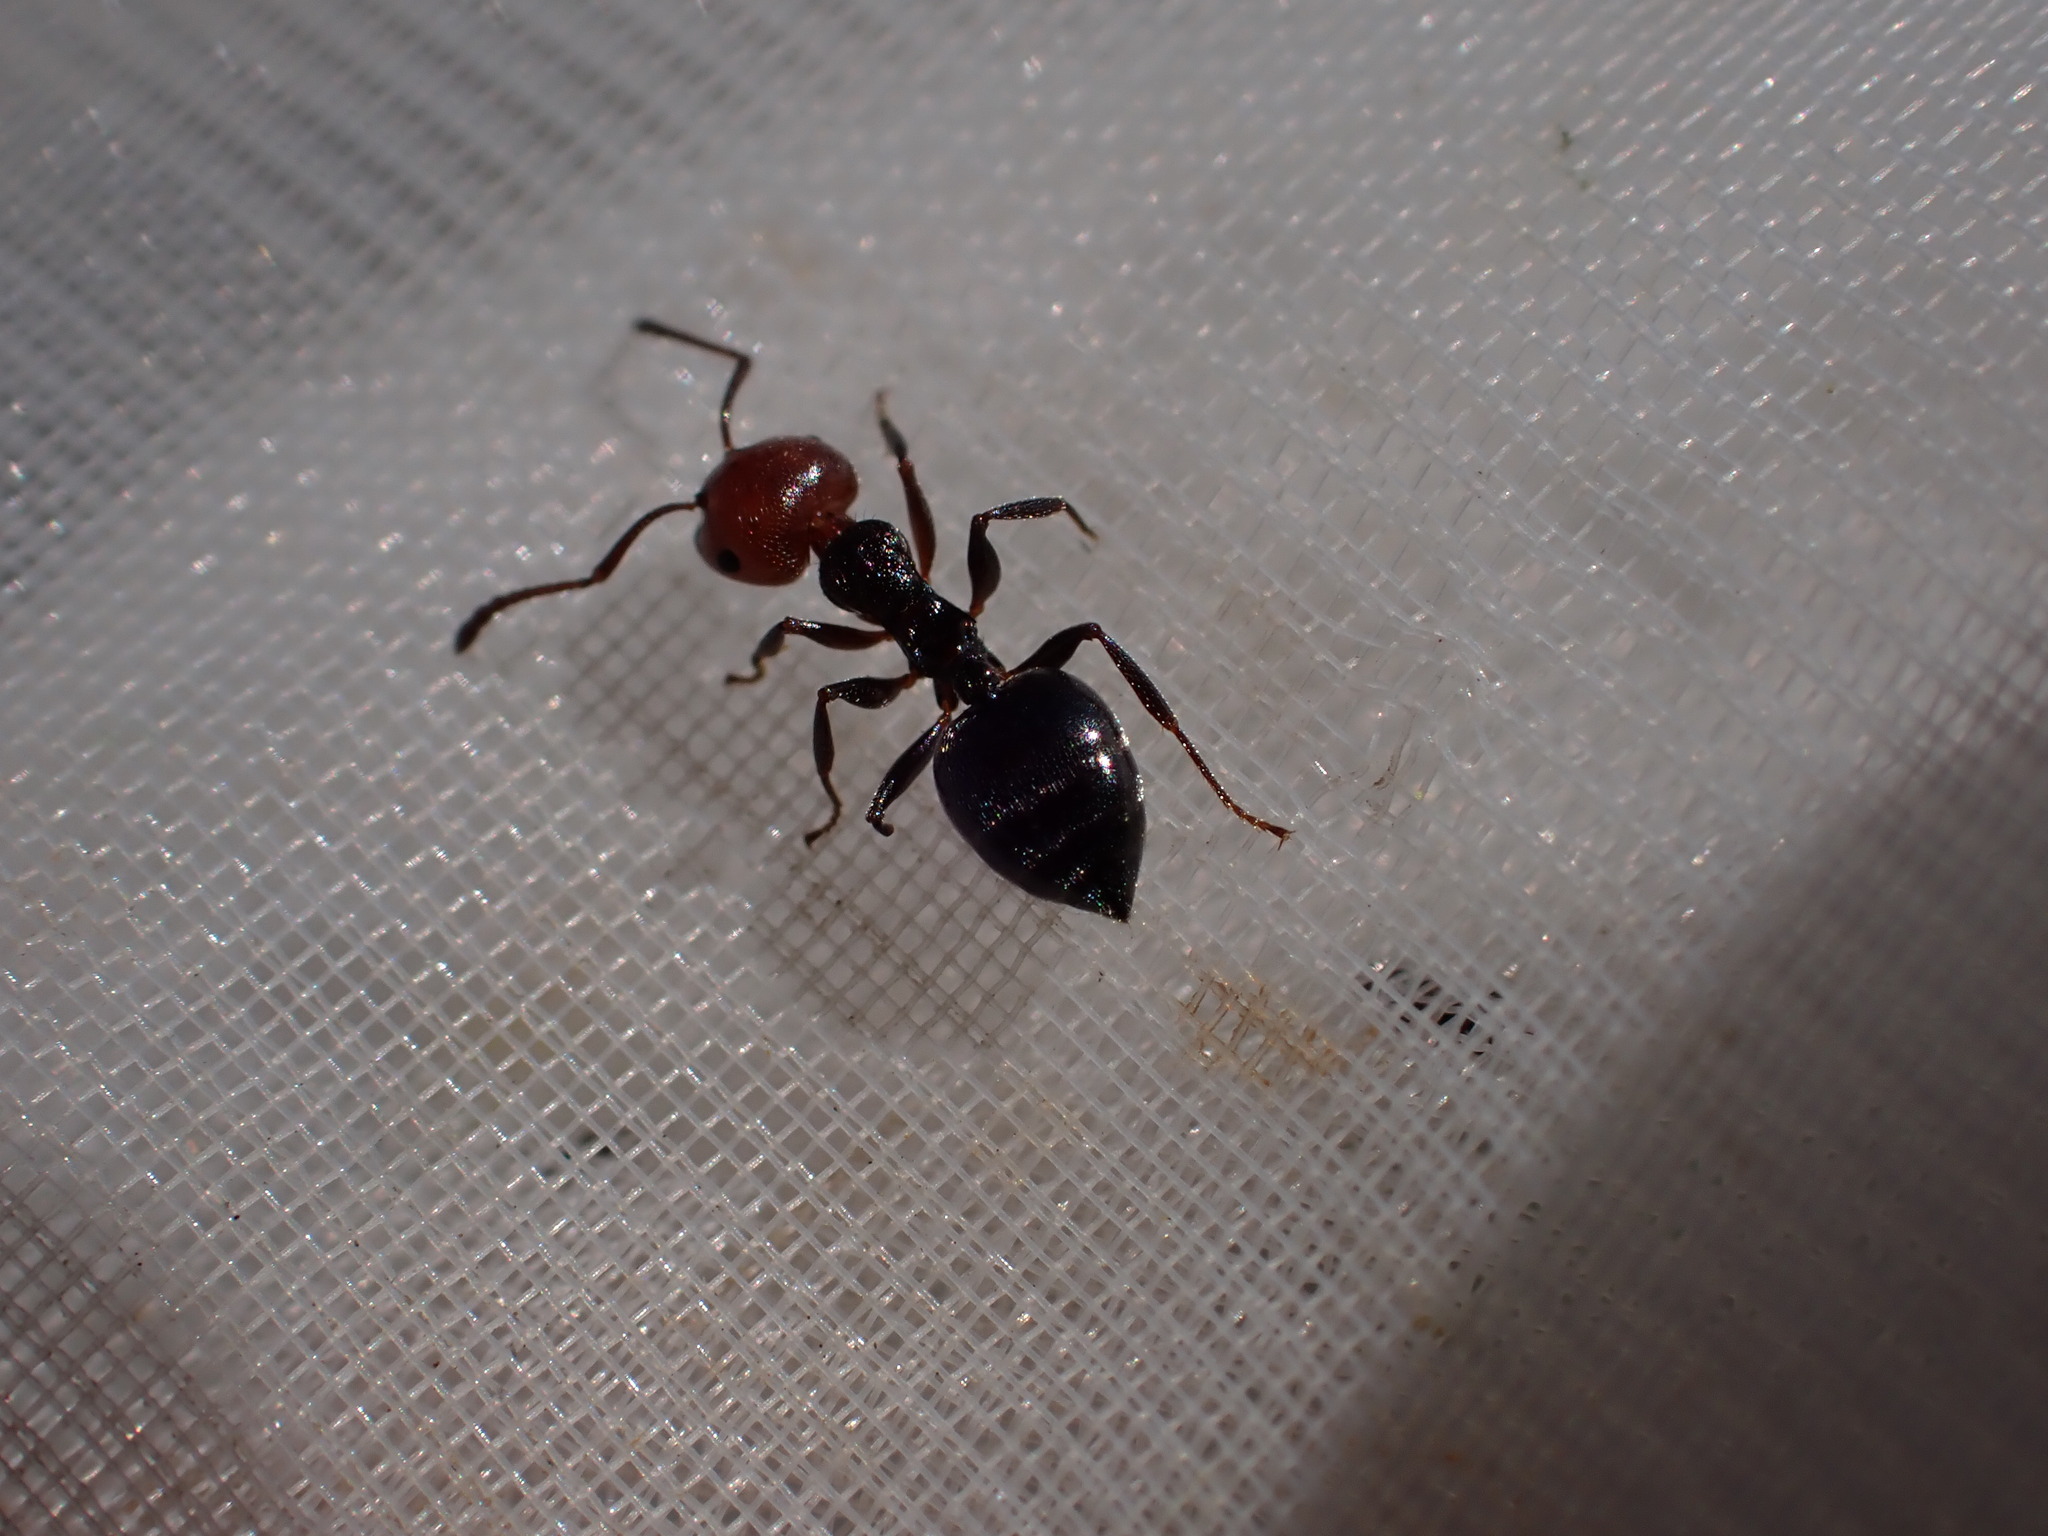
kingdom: Animalia
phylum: Arthropoda
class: Insecta
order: Hymenoptera
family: Formicidae
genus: Crematogaster
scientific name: Crematogaster scutellaris
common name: Fourmi du liège
